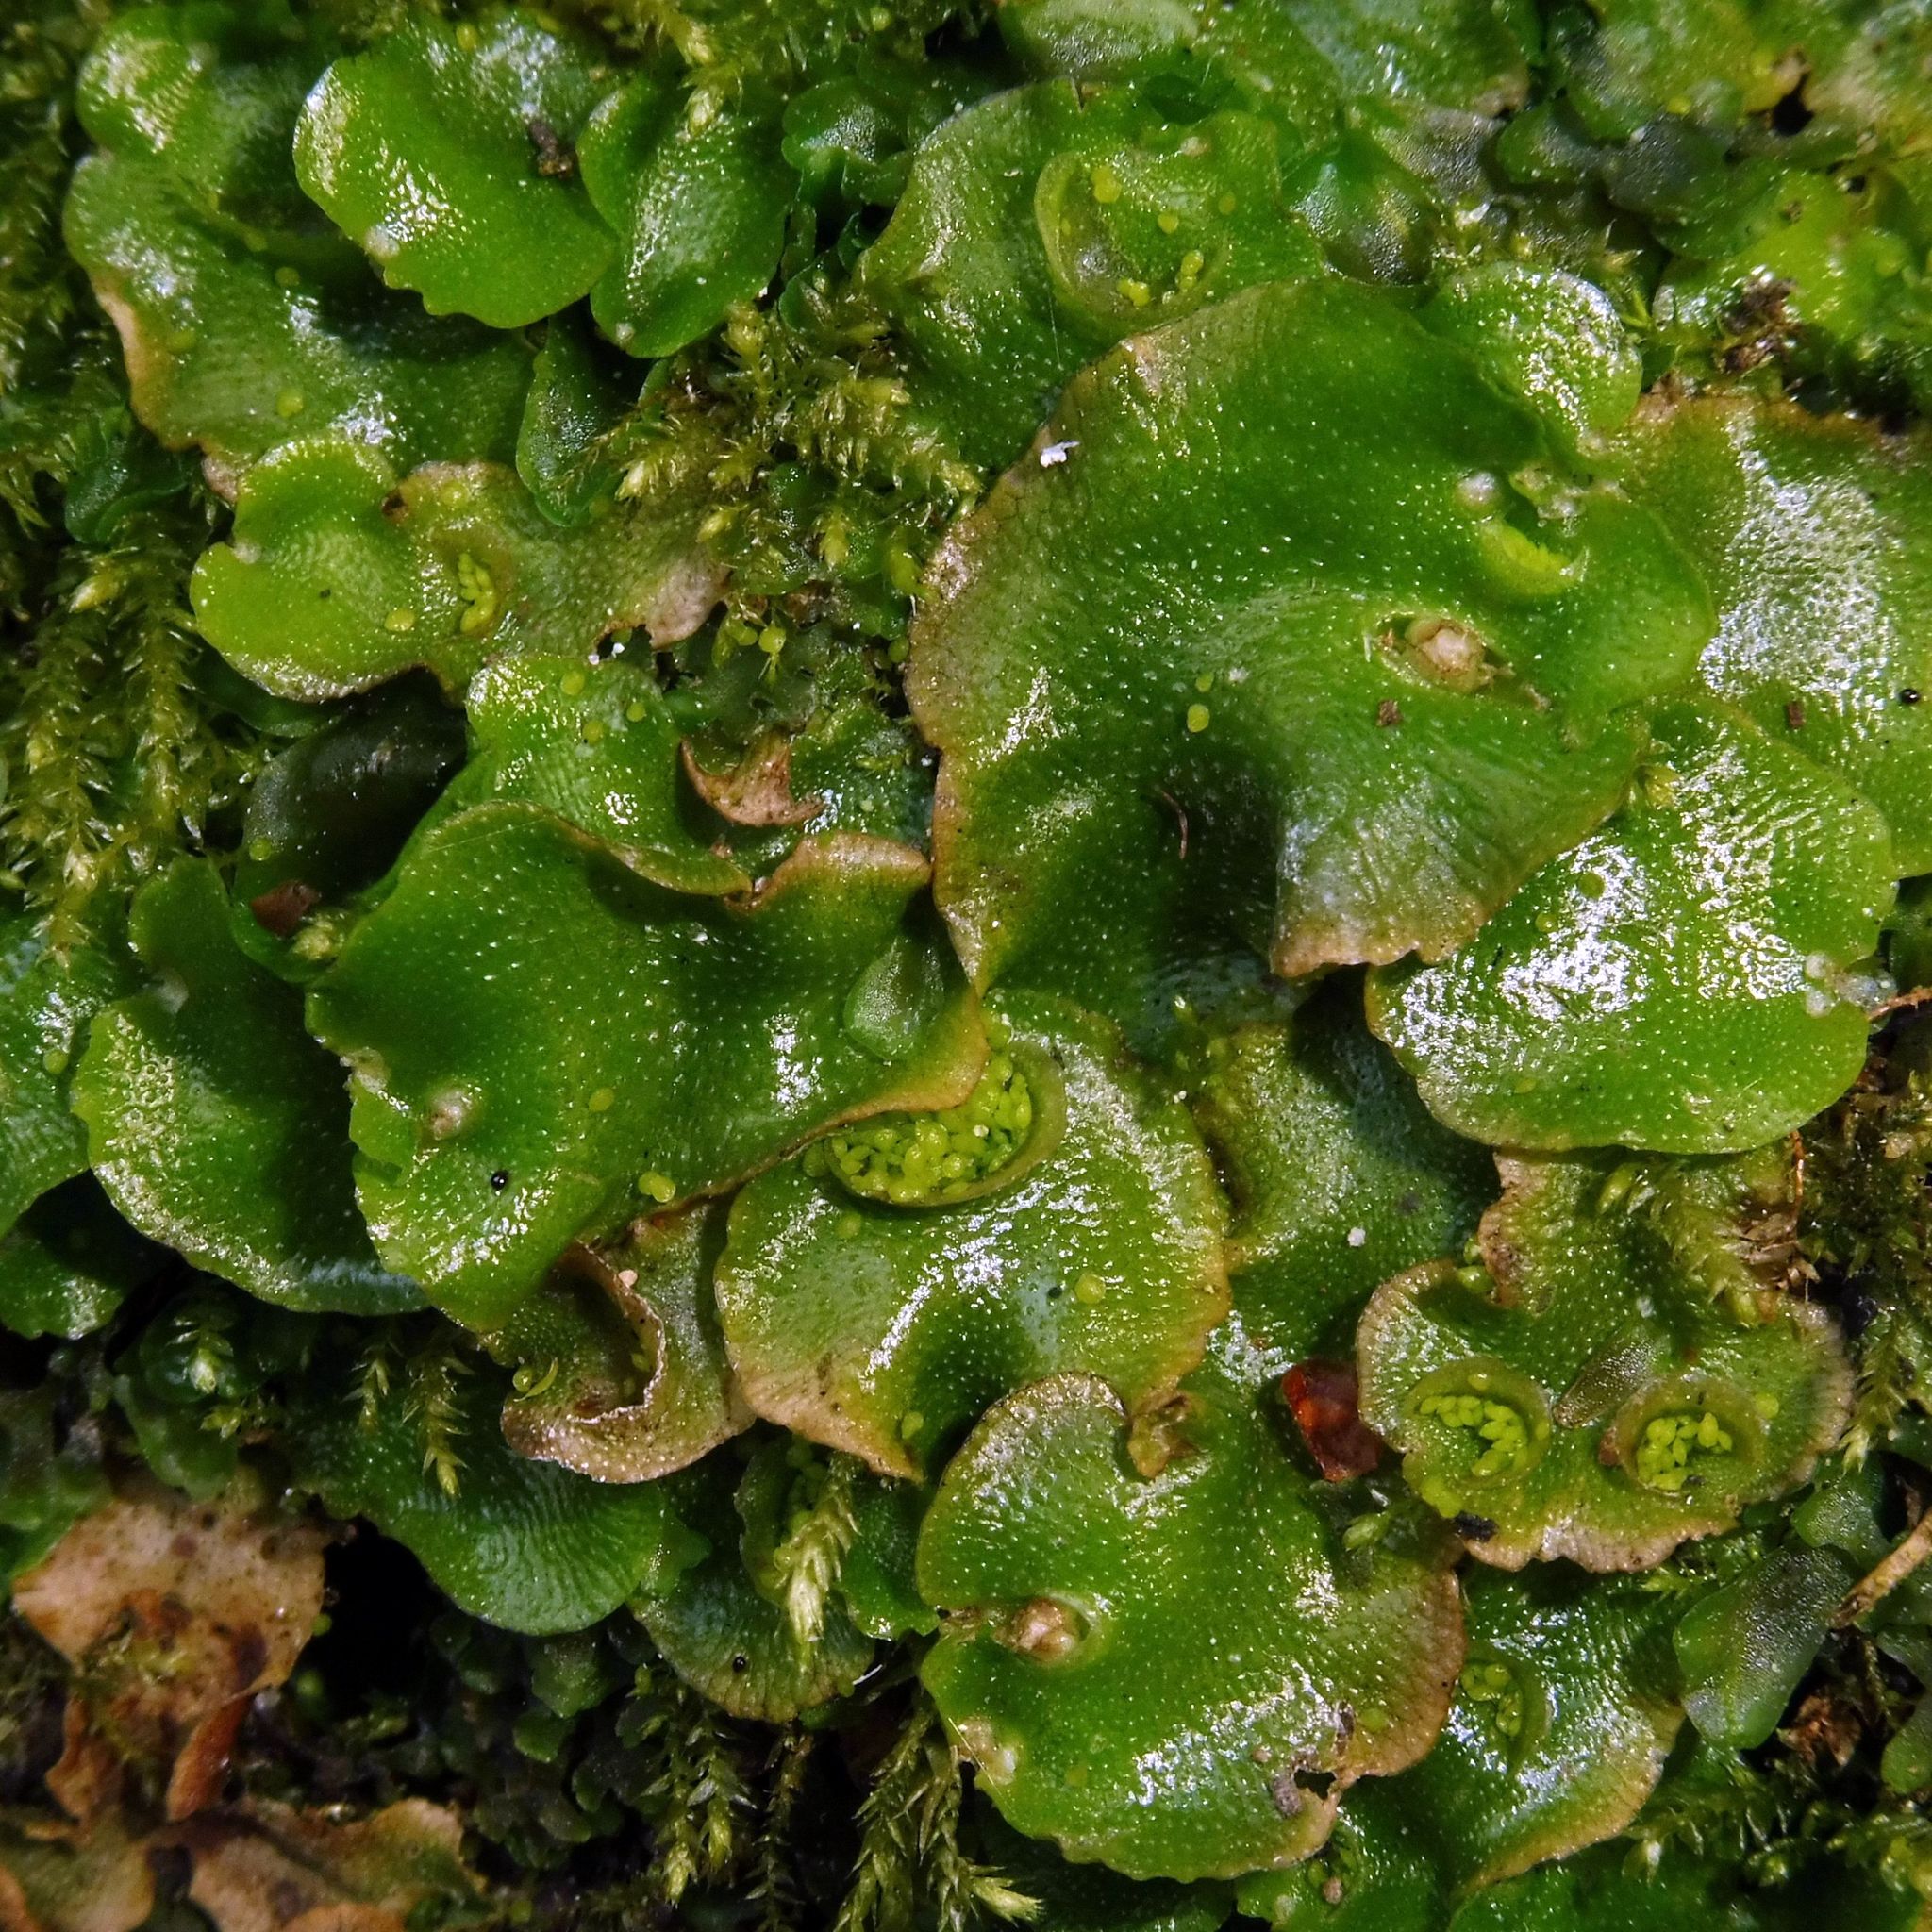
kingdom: Plantae
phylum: Marchantiophyta
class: Marchantiopsida
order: Lunulariales
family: Lunulariaceae
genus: Lunularia
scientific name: Lunularia cruciata
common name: Crescent-cup liverwort
